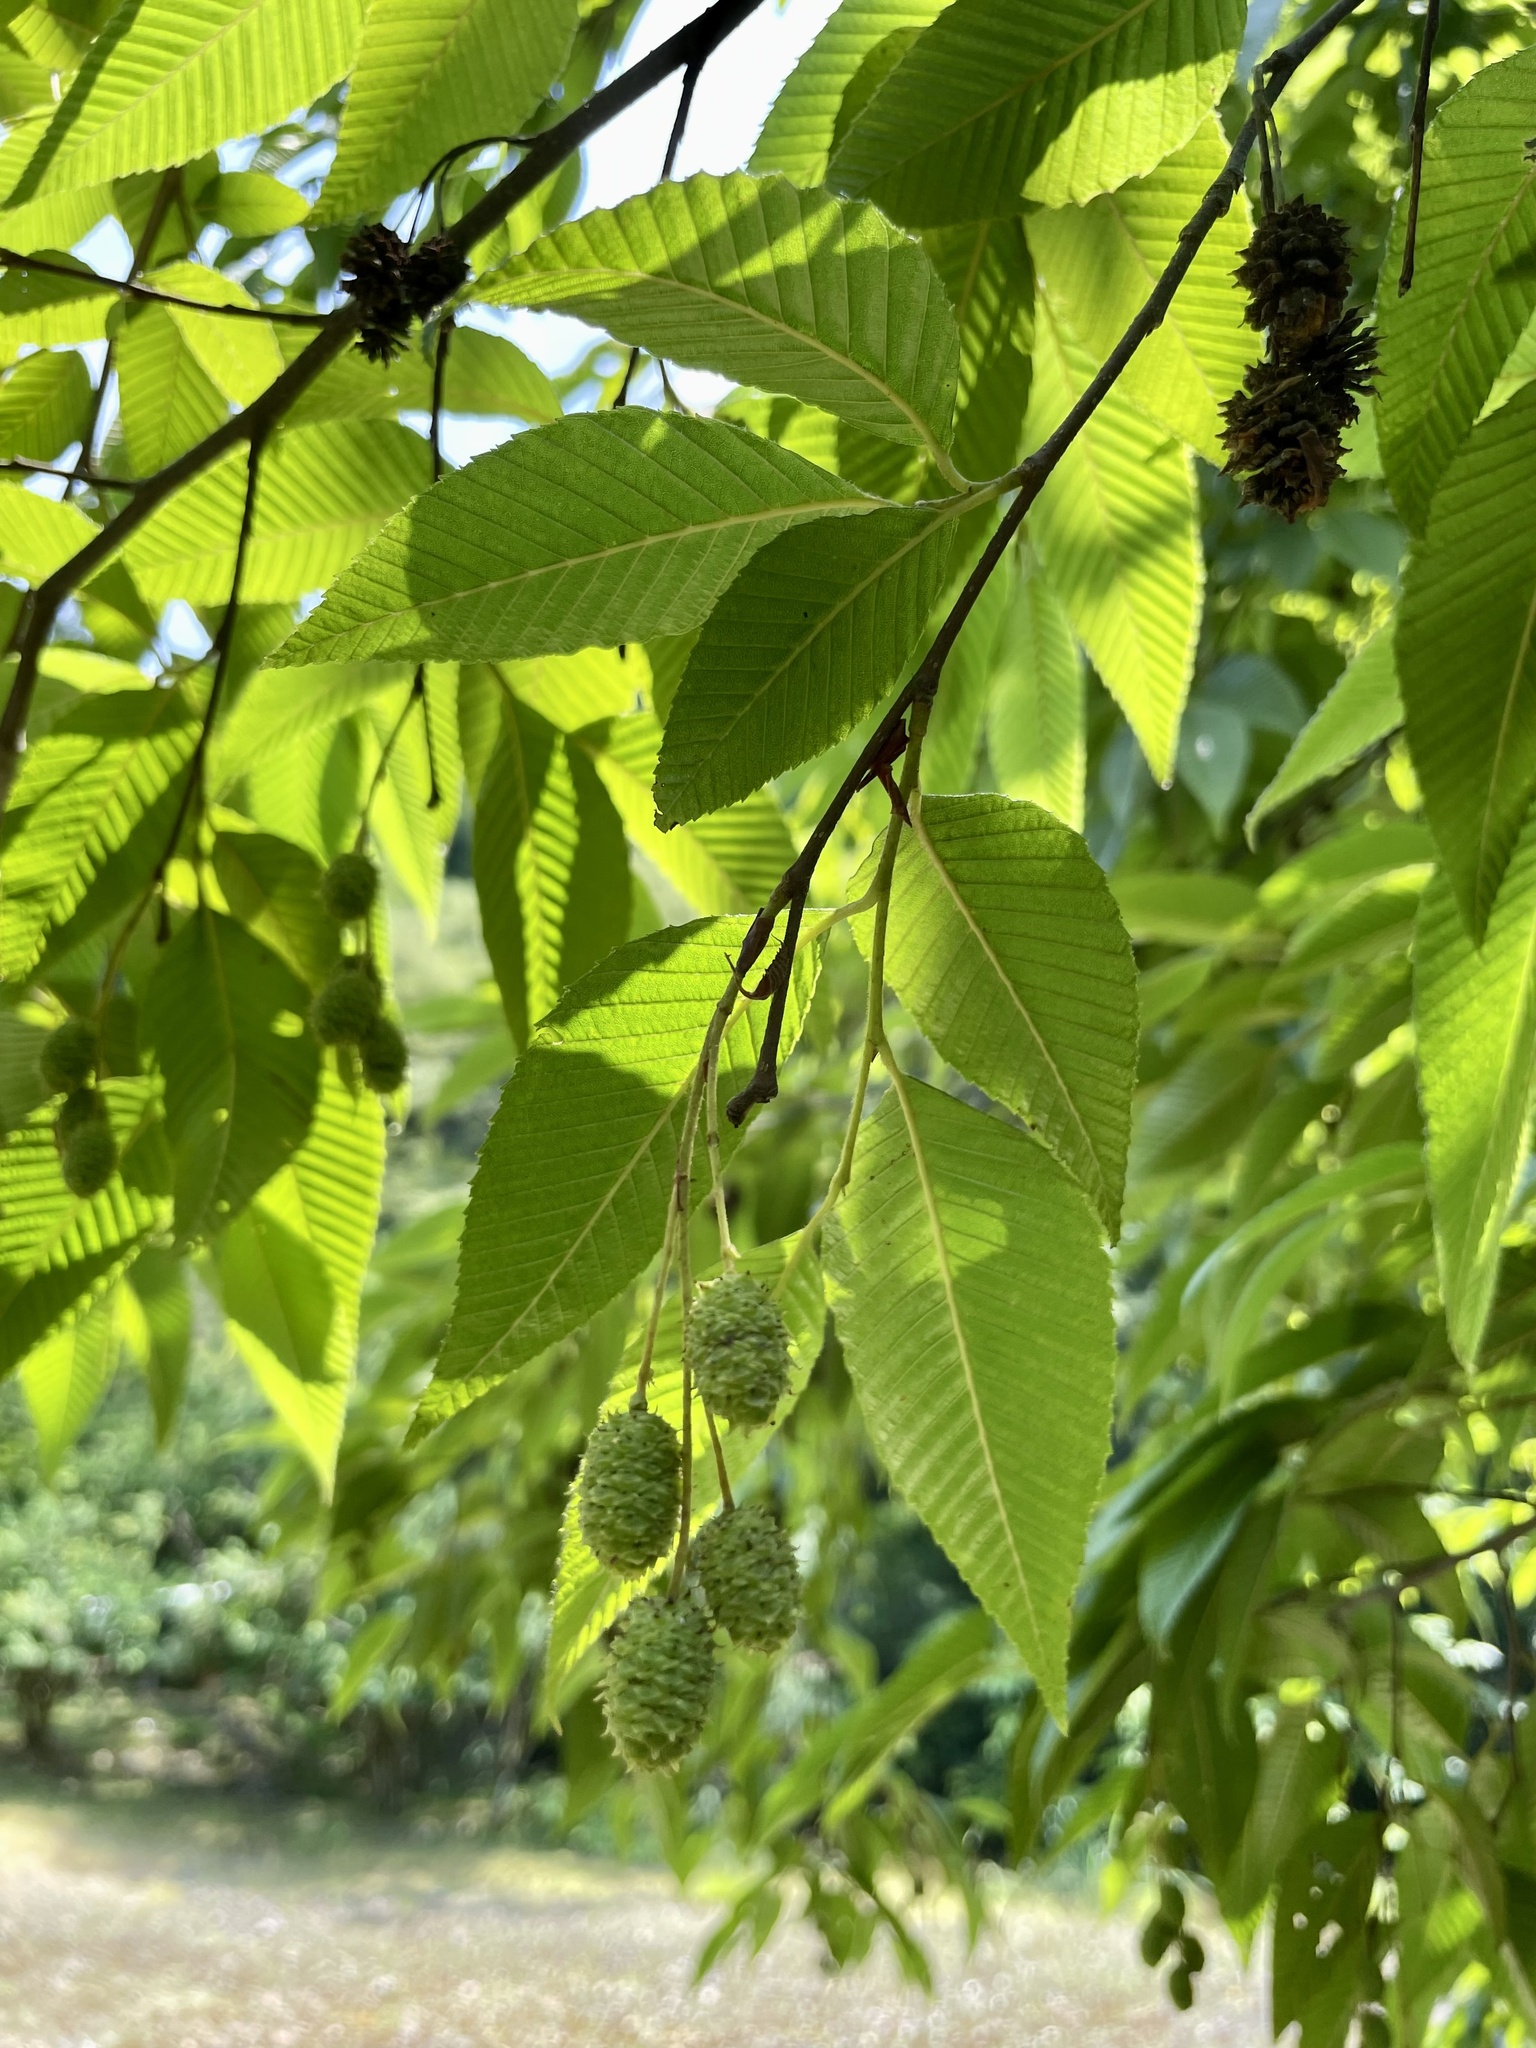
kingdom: Plantae
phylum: Tracheophyta
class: Magnoliopsida
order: Fagales
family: Betulaceae
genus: Alnus
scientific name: Alnus pendula
